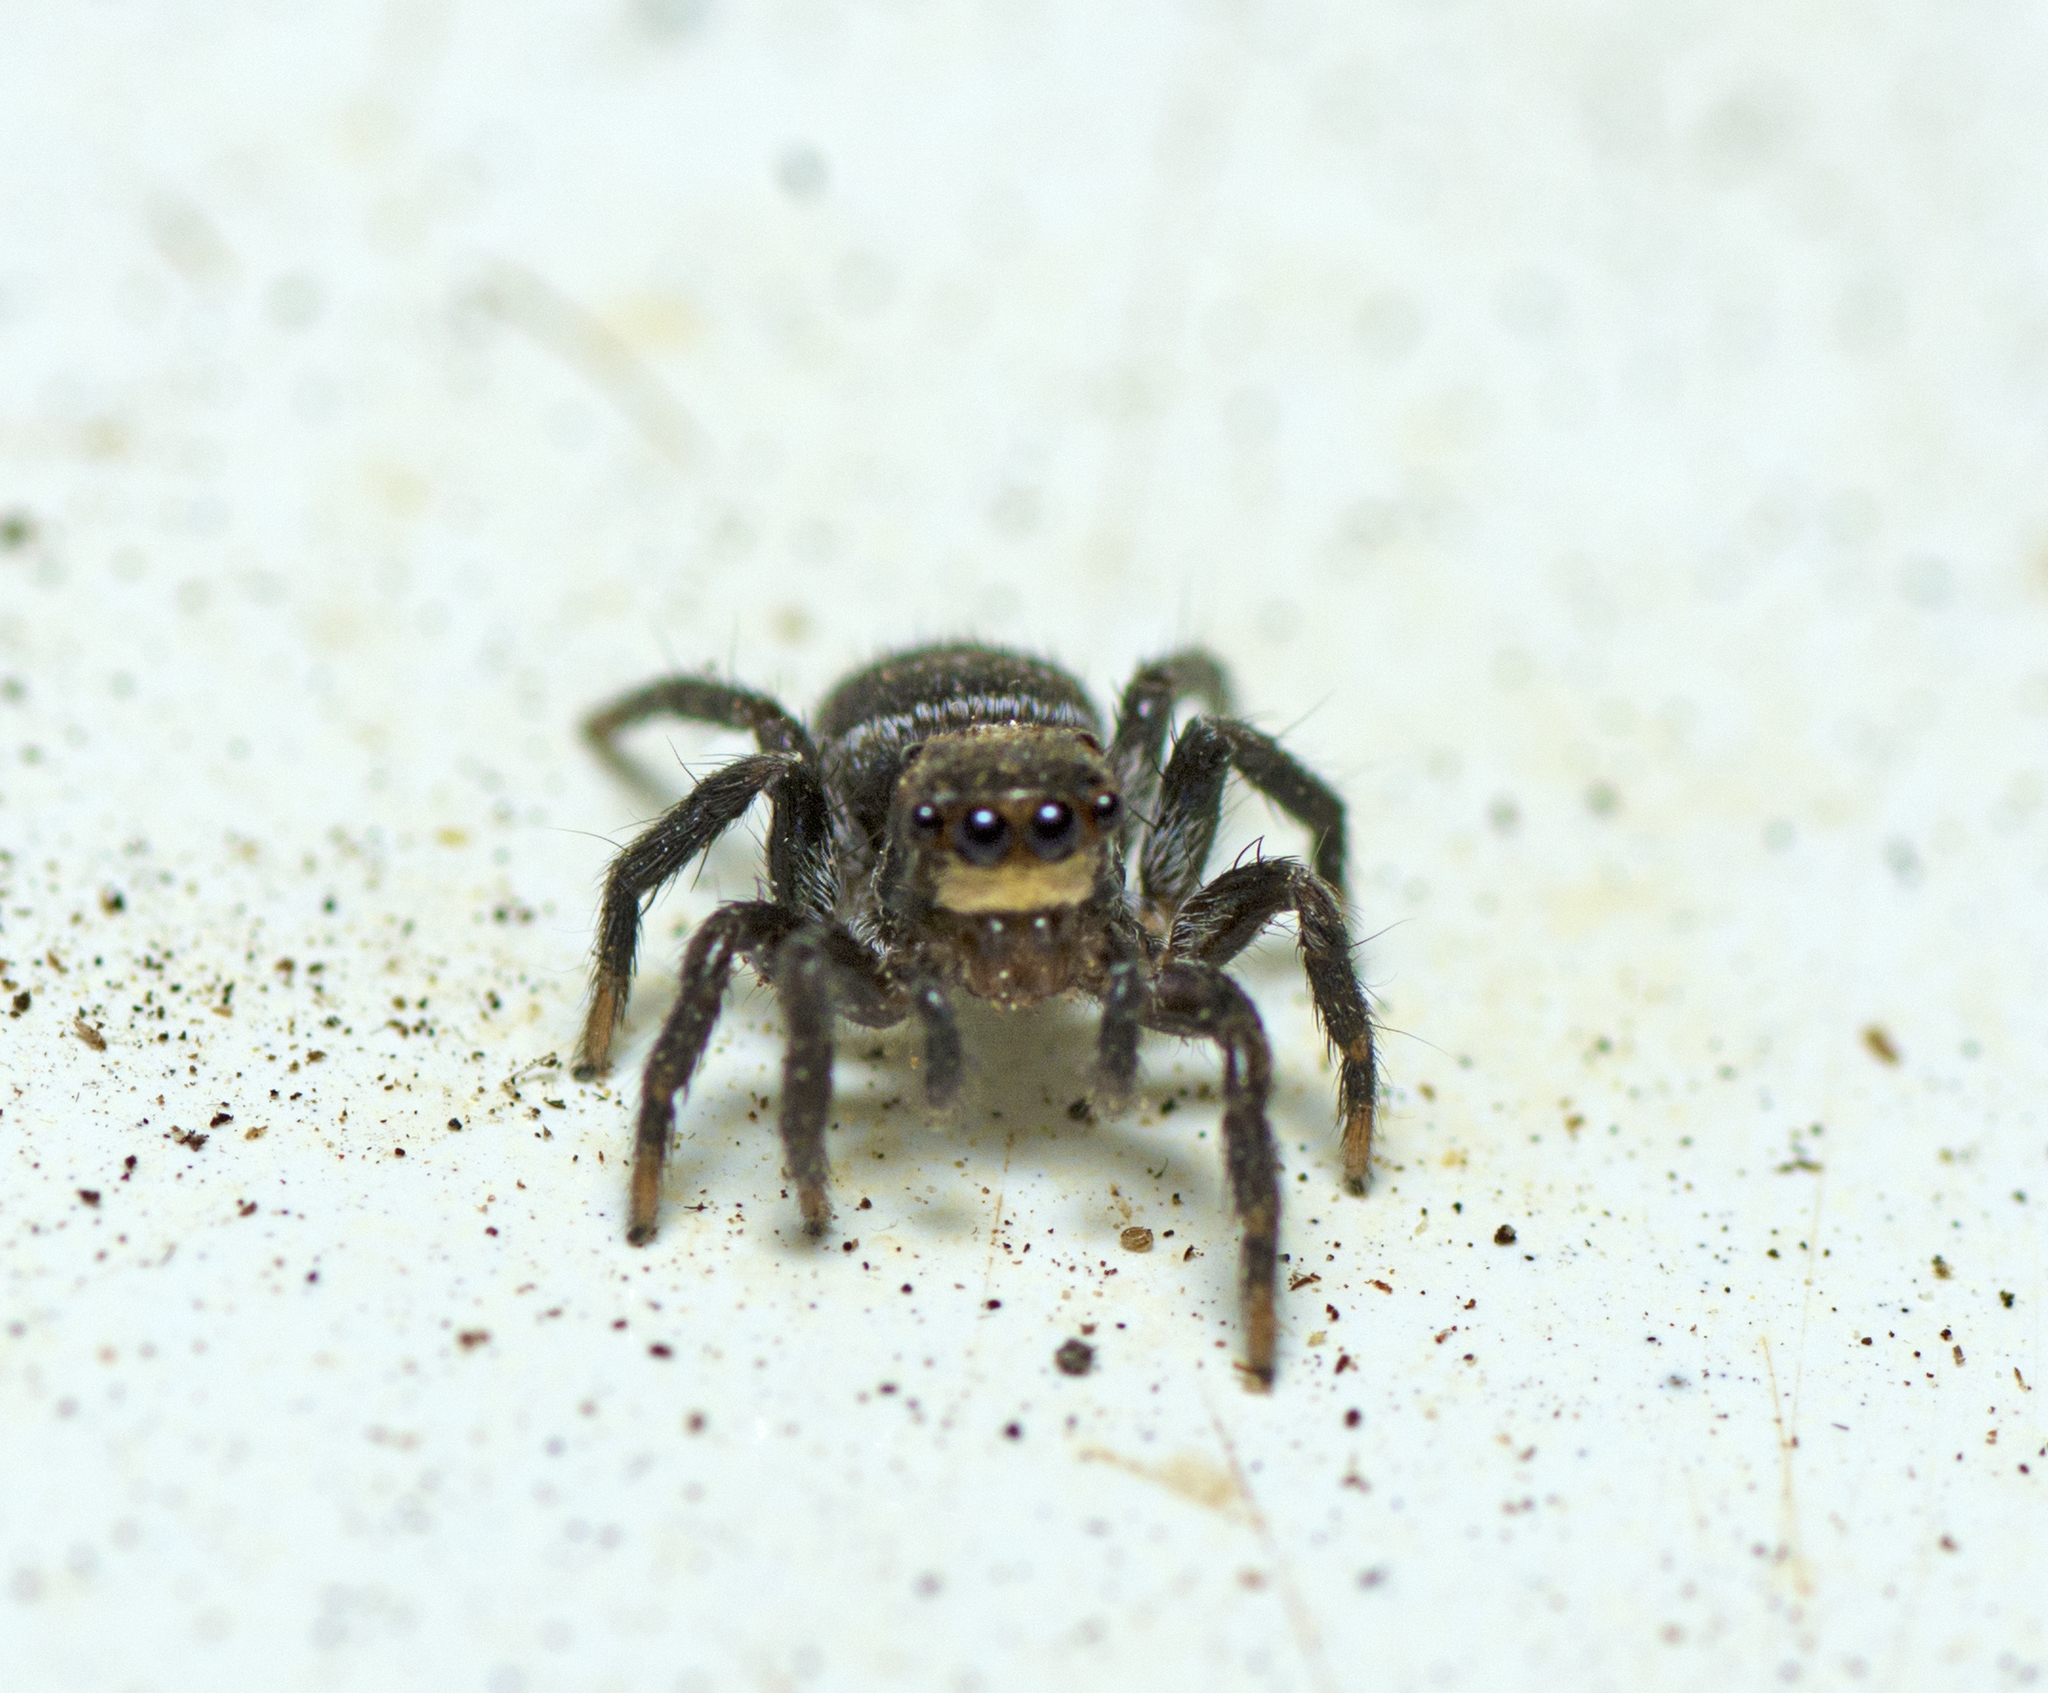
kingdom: Animalia
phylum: Arthropoda
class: Arachnida
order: Araneae
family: Salticidae
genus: Saitis
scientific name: Saitis virgatus
